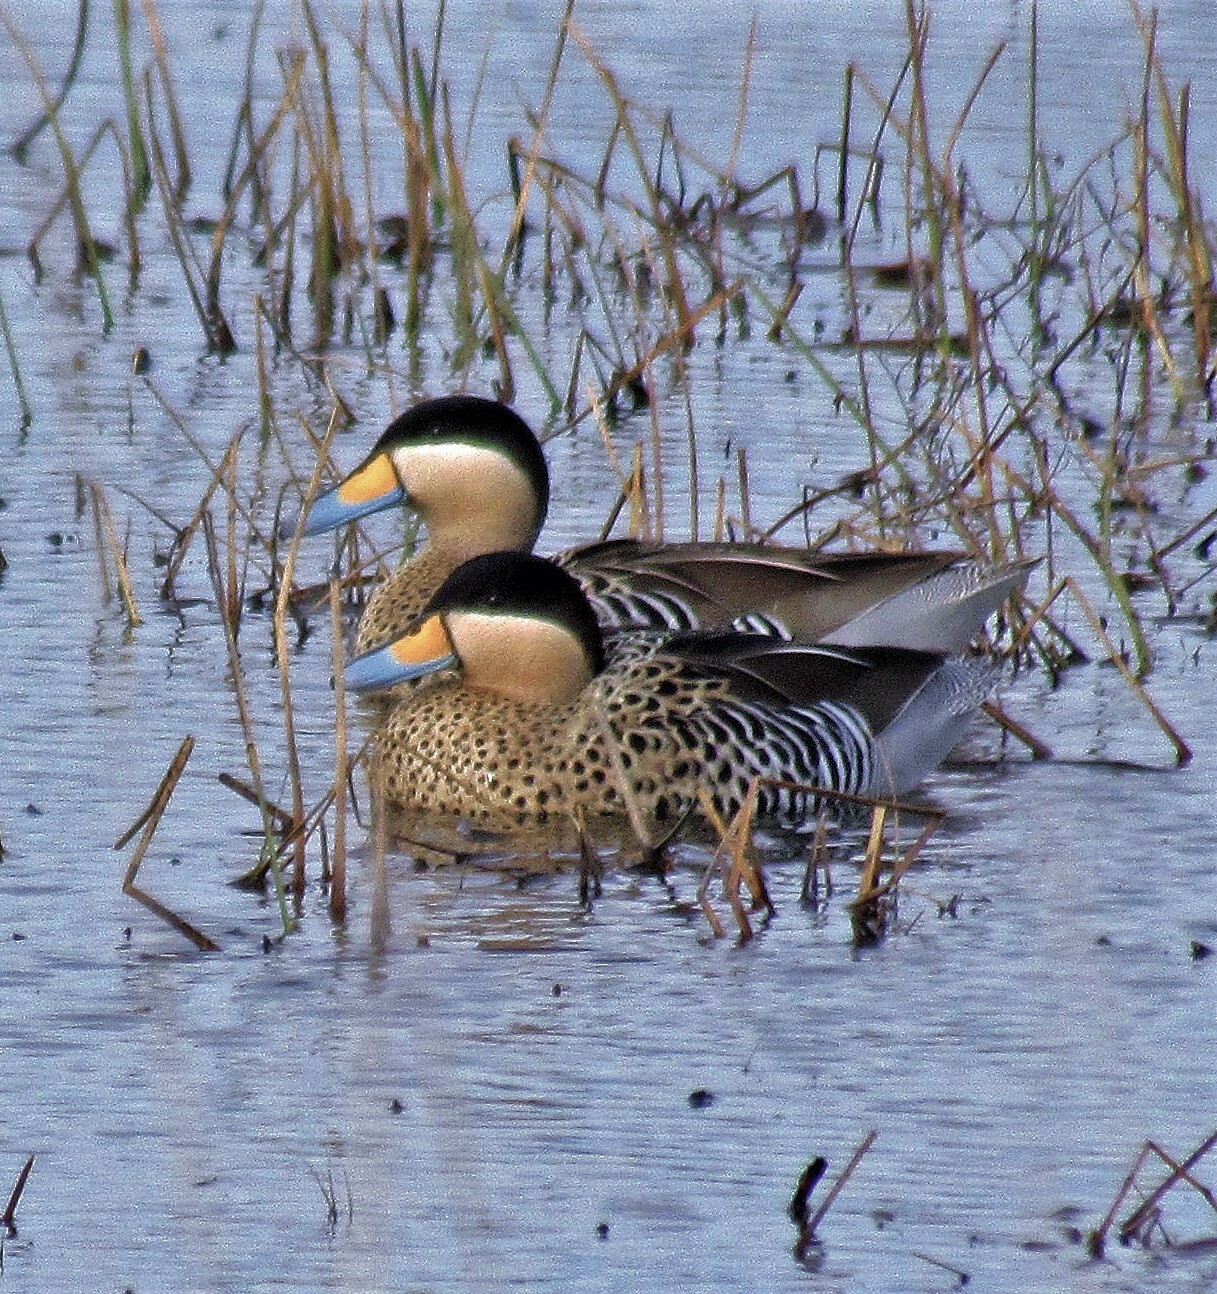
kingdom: Animalia
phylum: Chordata
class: Aves
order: Anseriformes
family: Anatidae
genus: Spatula
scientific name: Spatula versicolor
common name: Silver teal
